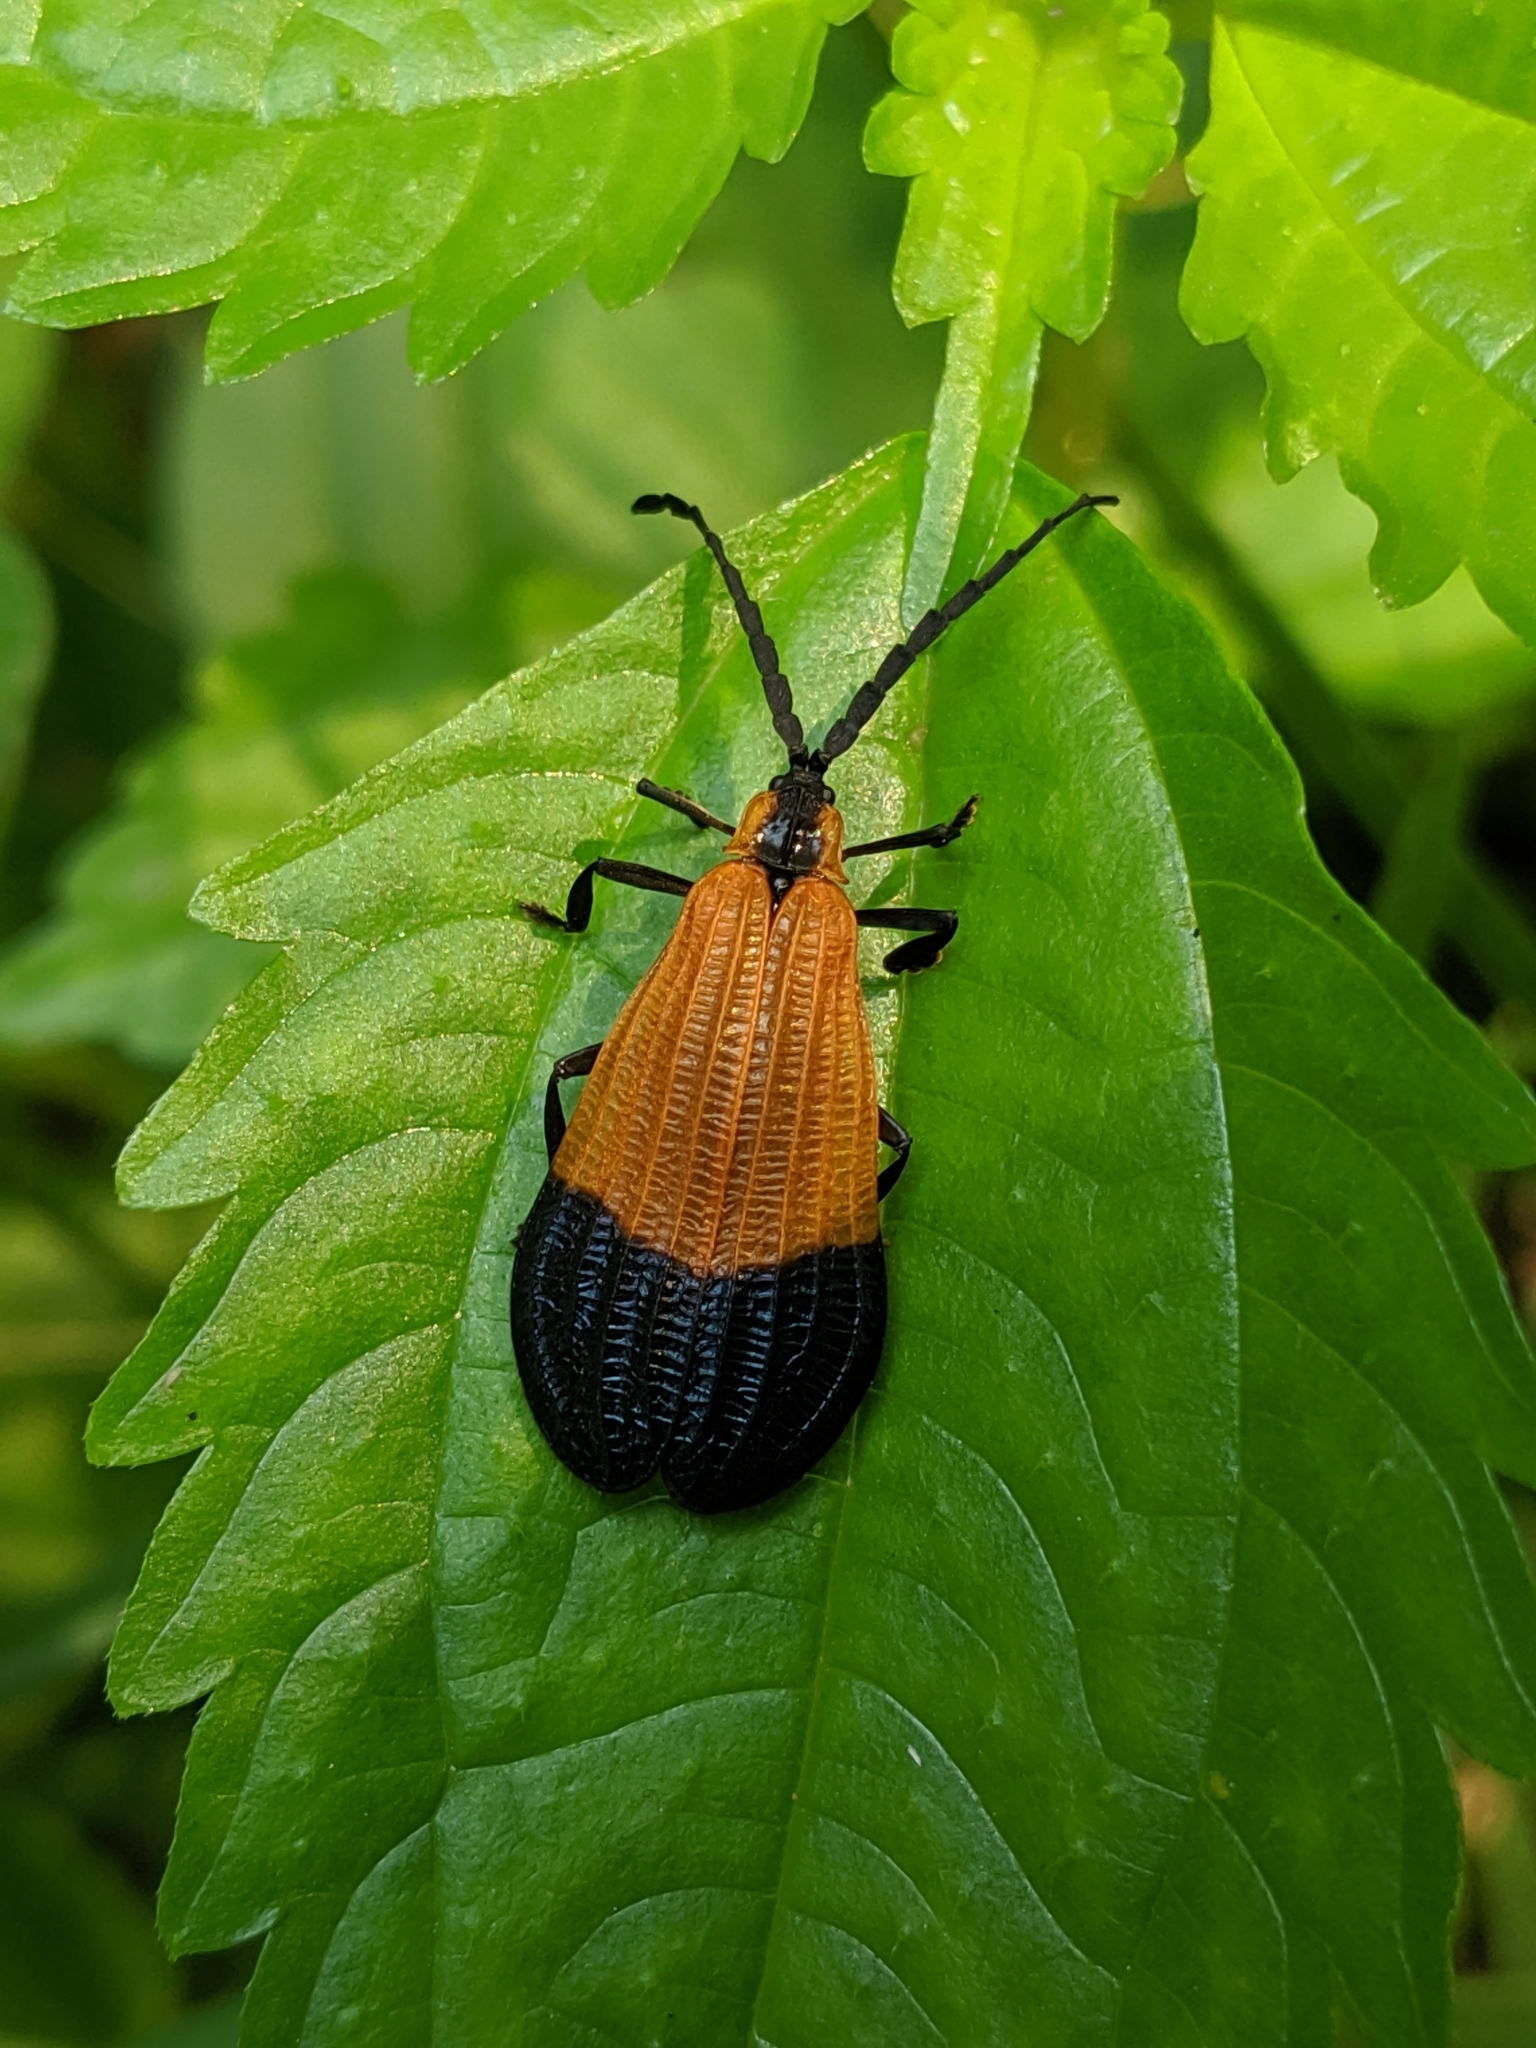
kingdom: Animalia
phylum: Arthropoda
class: Insecta
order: Coleoptera
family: Lycidae
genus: Calopteron
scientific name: Calopteron terminale
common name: End band net-winged beetle
